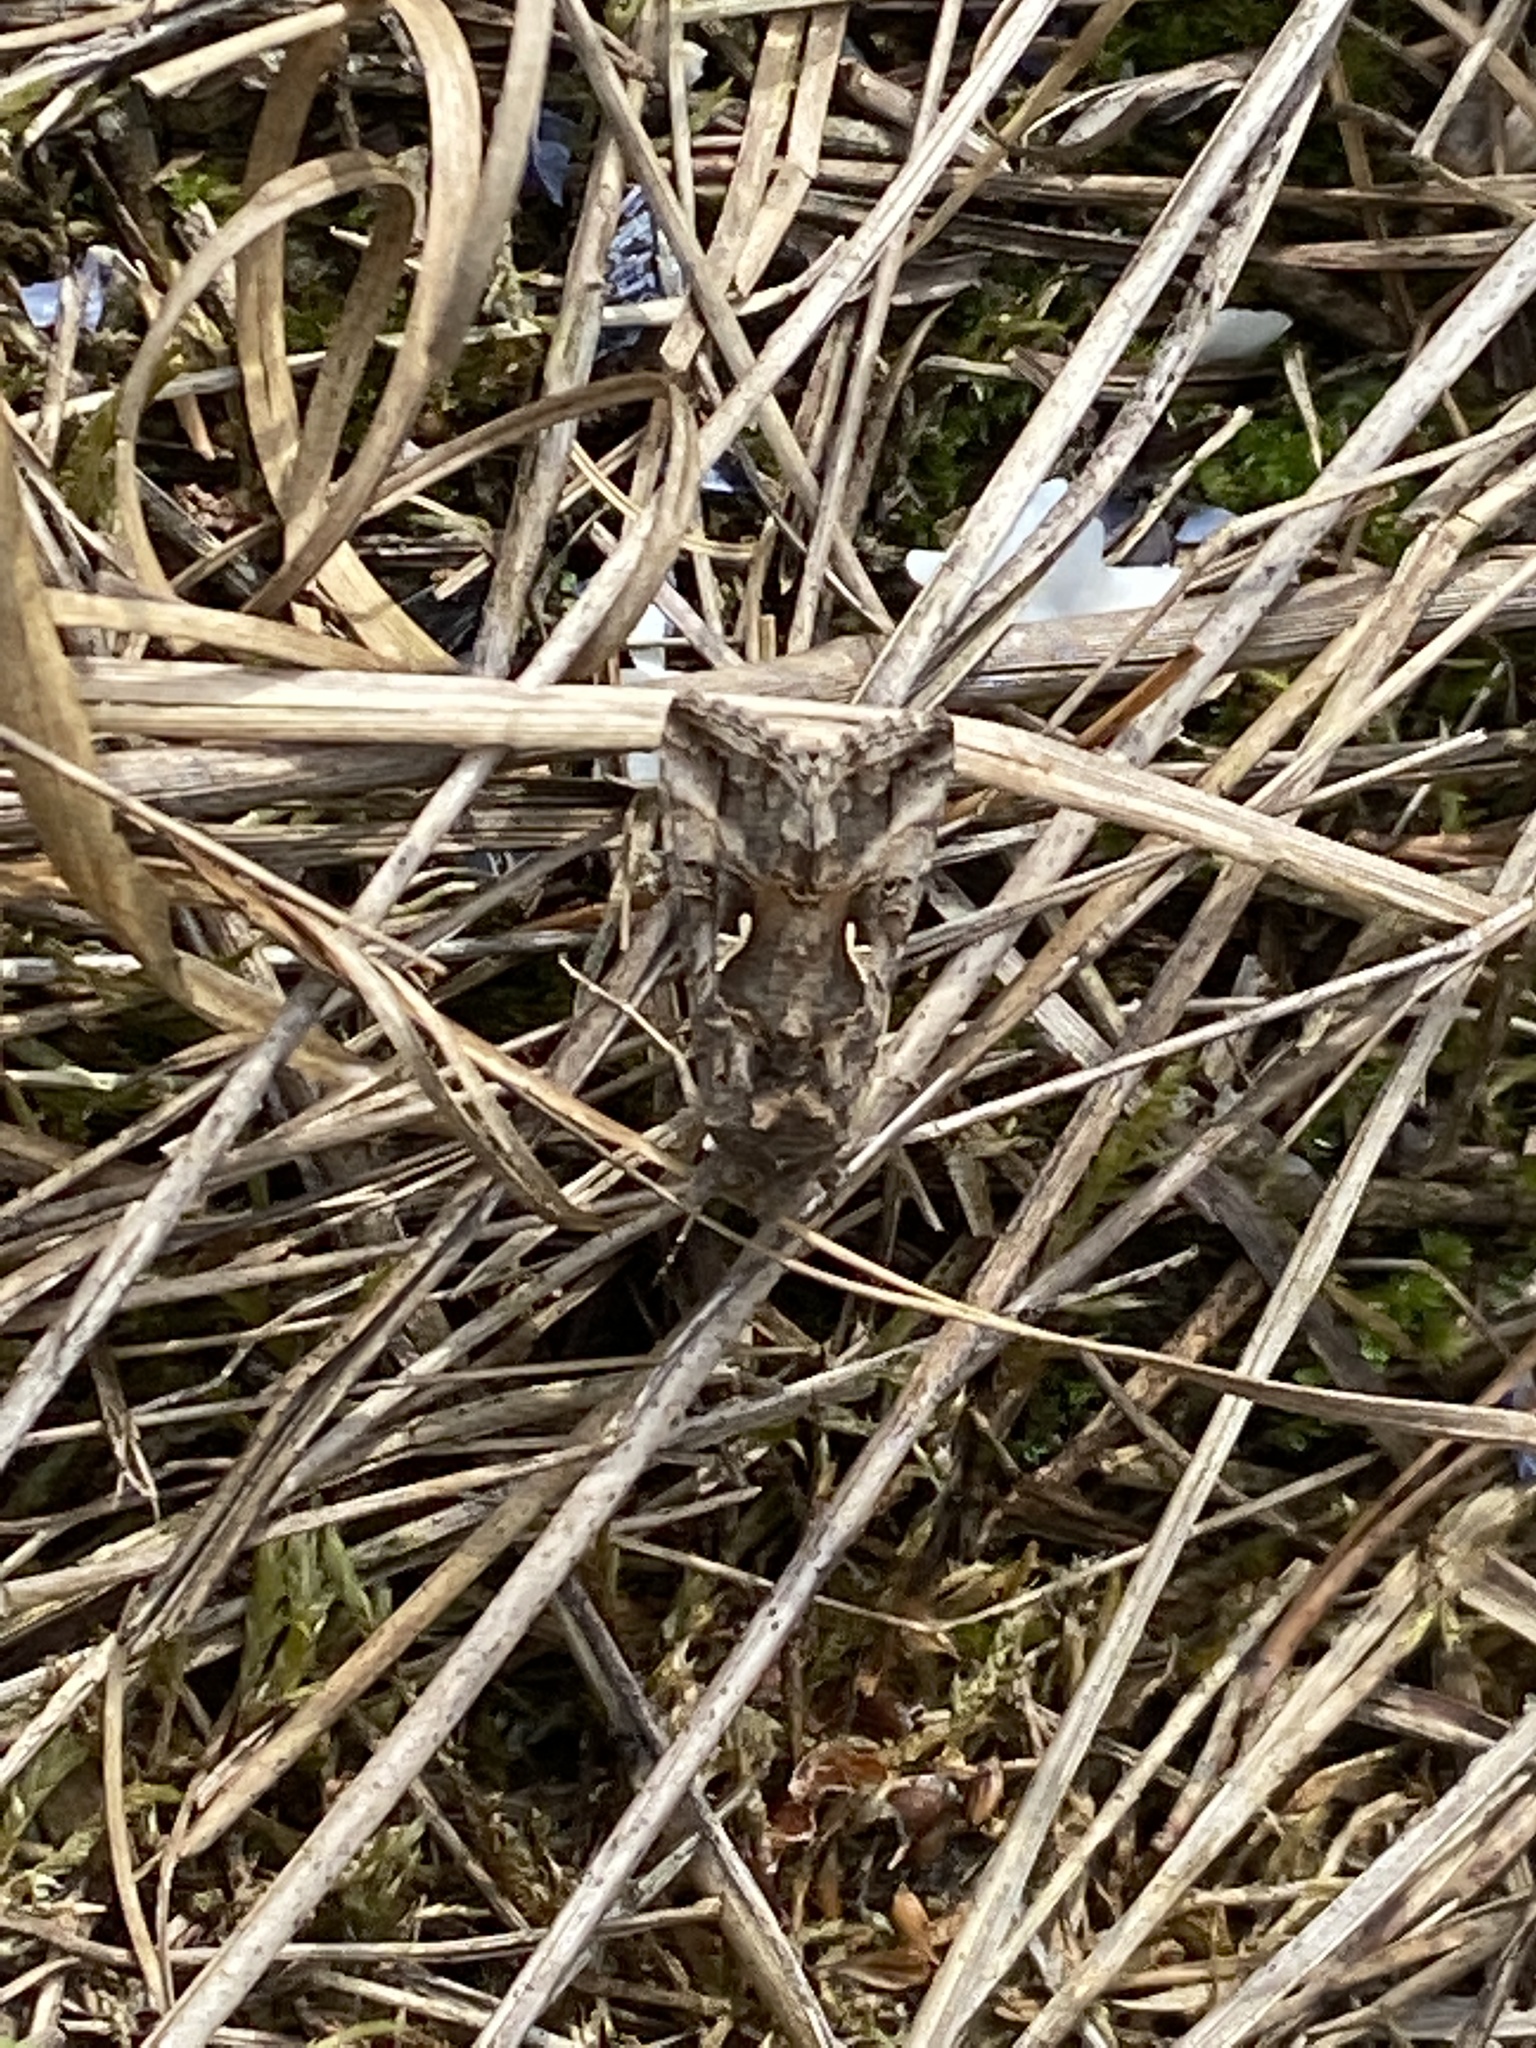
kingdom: Animalia
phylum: Arthropoda
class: Insecta
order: Lepidoptera
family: Noctuidae
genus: Autographa
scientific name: Autographa gamma
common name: Silver y
